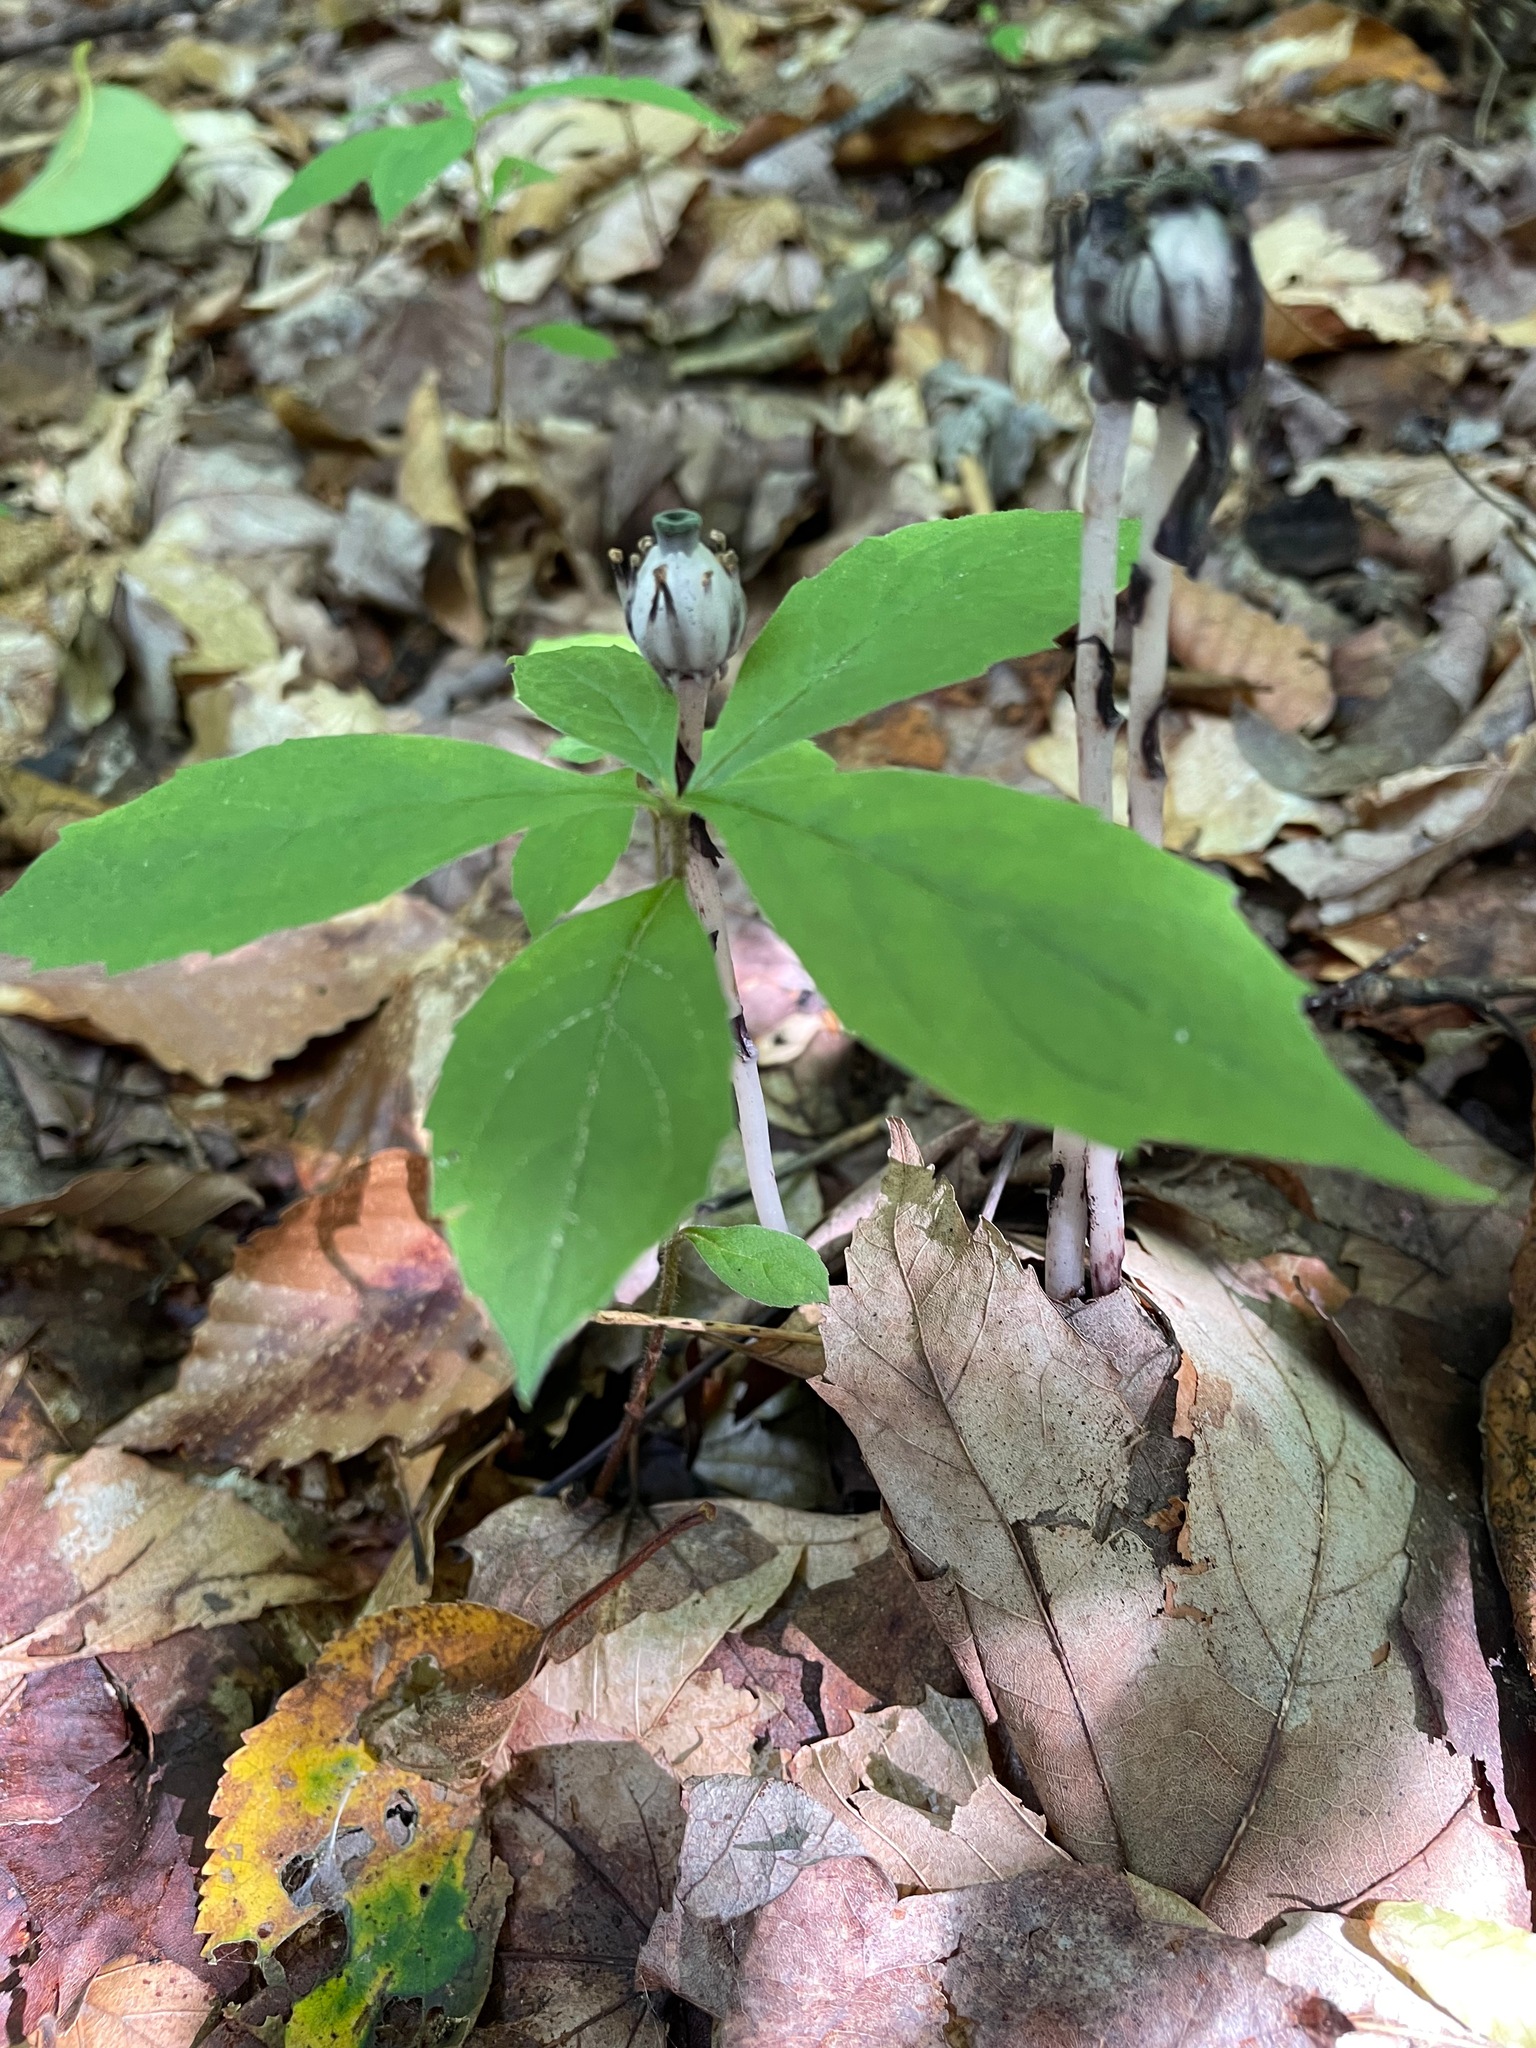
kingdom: Plantae
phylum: Tracheophyta
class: Magnoliopsida
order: Asterales
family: Asteraceae
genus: Oclemena
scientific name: Oclemena acuminata
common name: Mountain aster
